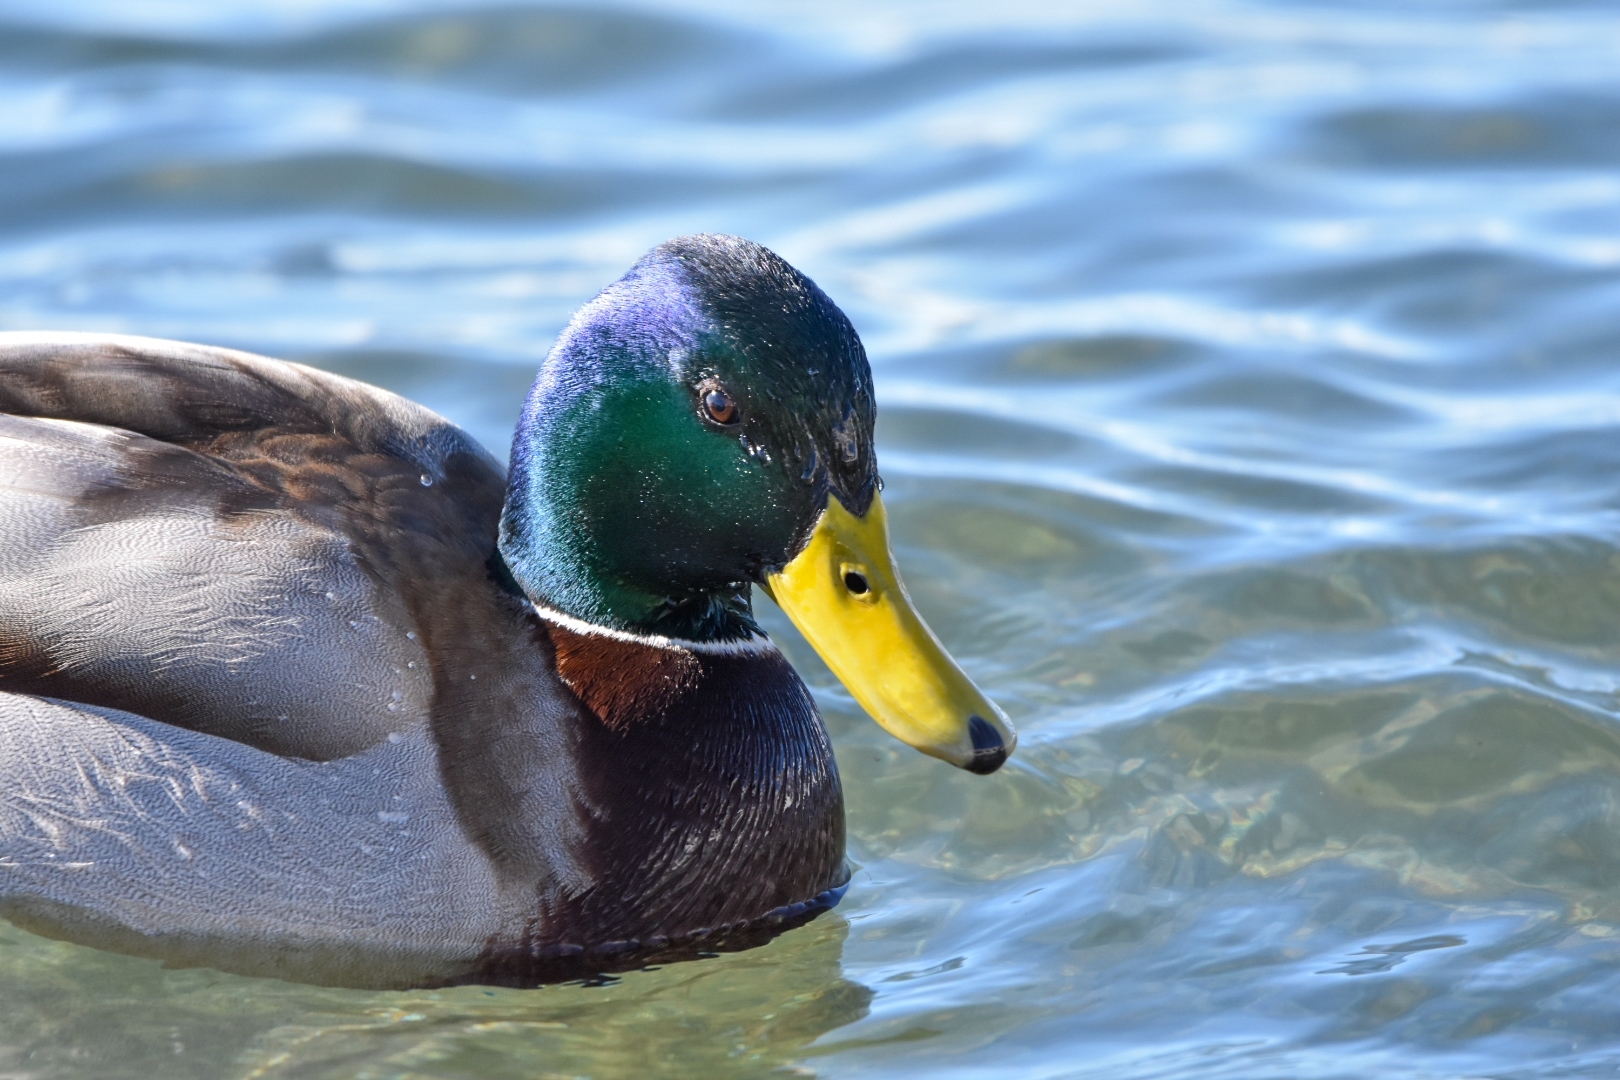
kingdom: Animalia
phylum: Chordata
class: Aves
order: Anseriformes
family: Anatidae
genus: Anas
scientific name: Anas platyrhynchos
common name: Mallard
